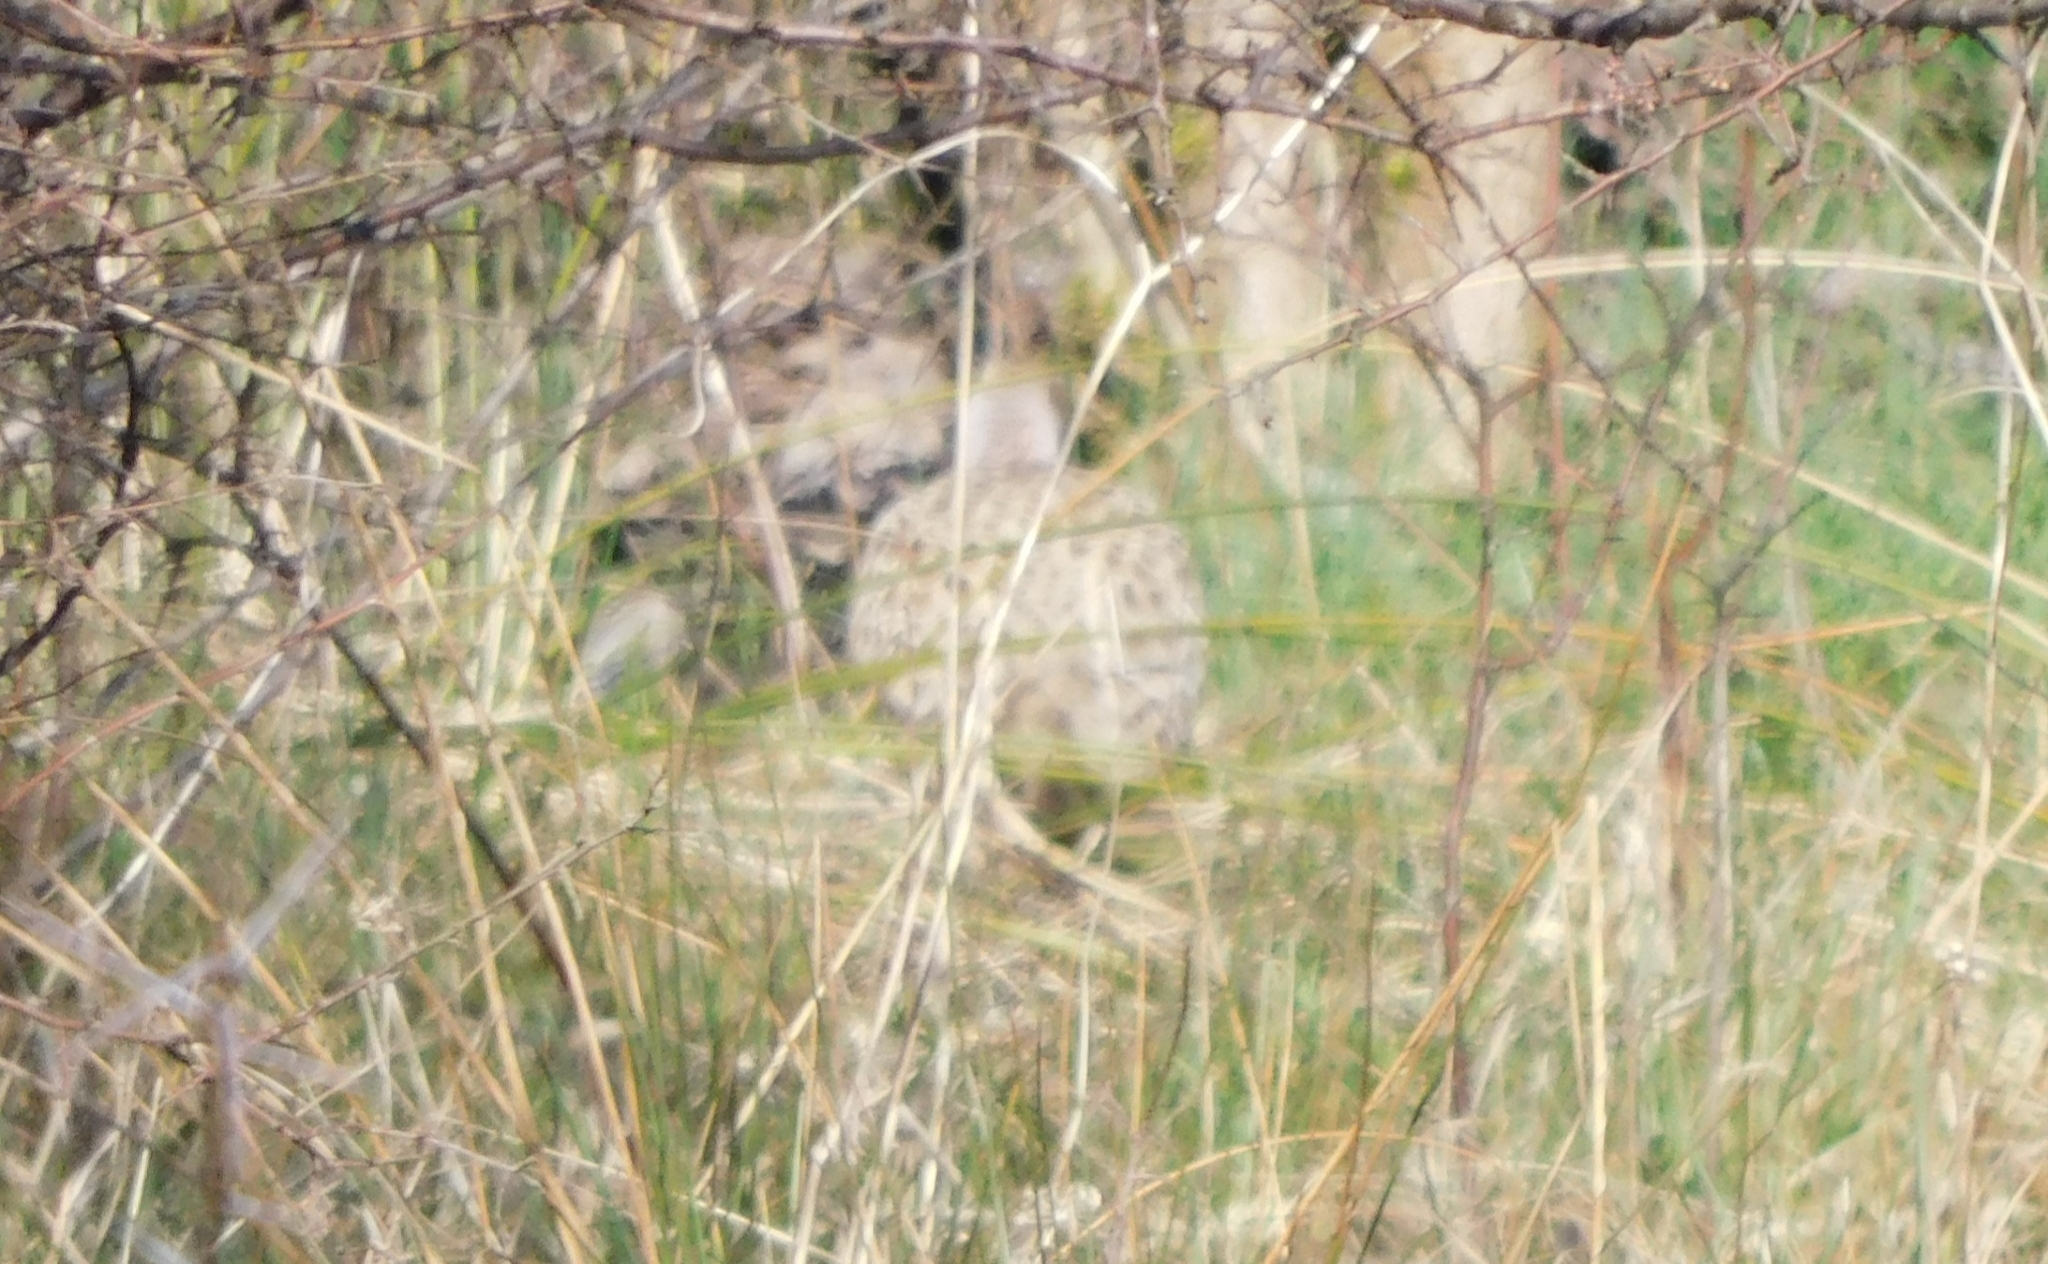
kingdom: Animalia
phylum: Chordata
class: Aves
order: Galliformes
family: Phasianidae
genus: Phasianus
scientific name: Phasianus colchicus
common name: Common pheasant
